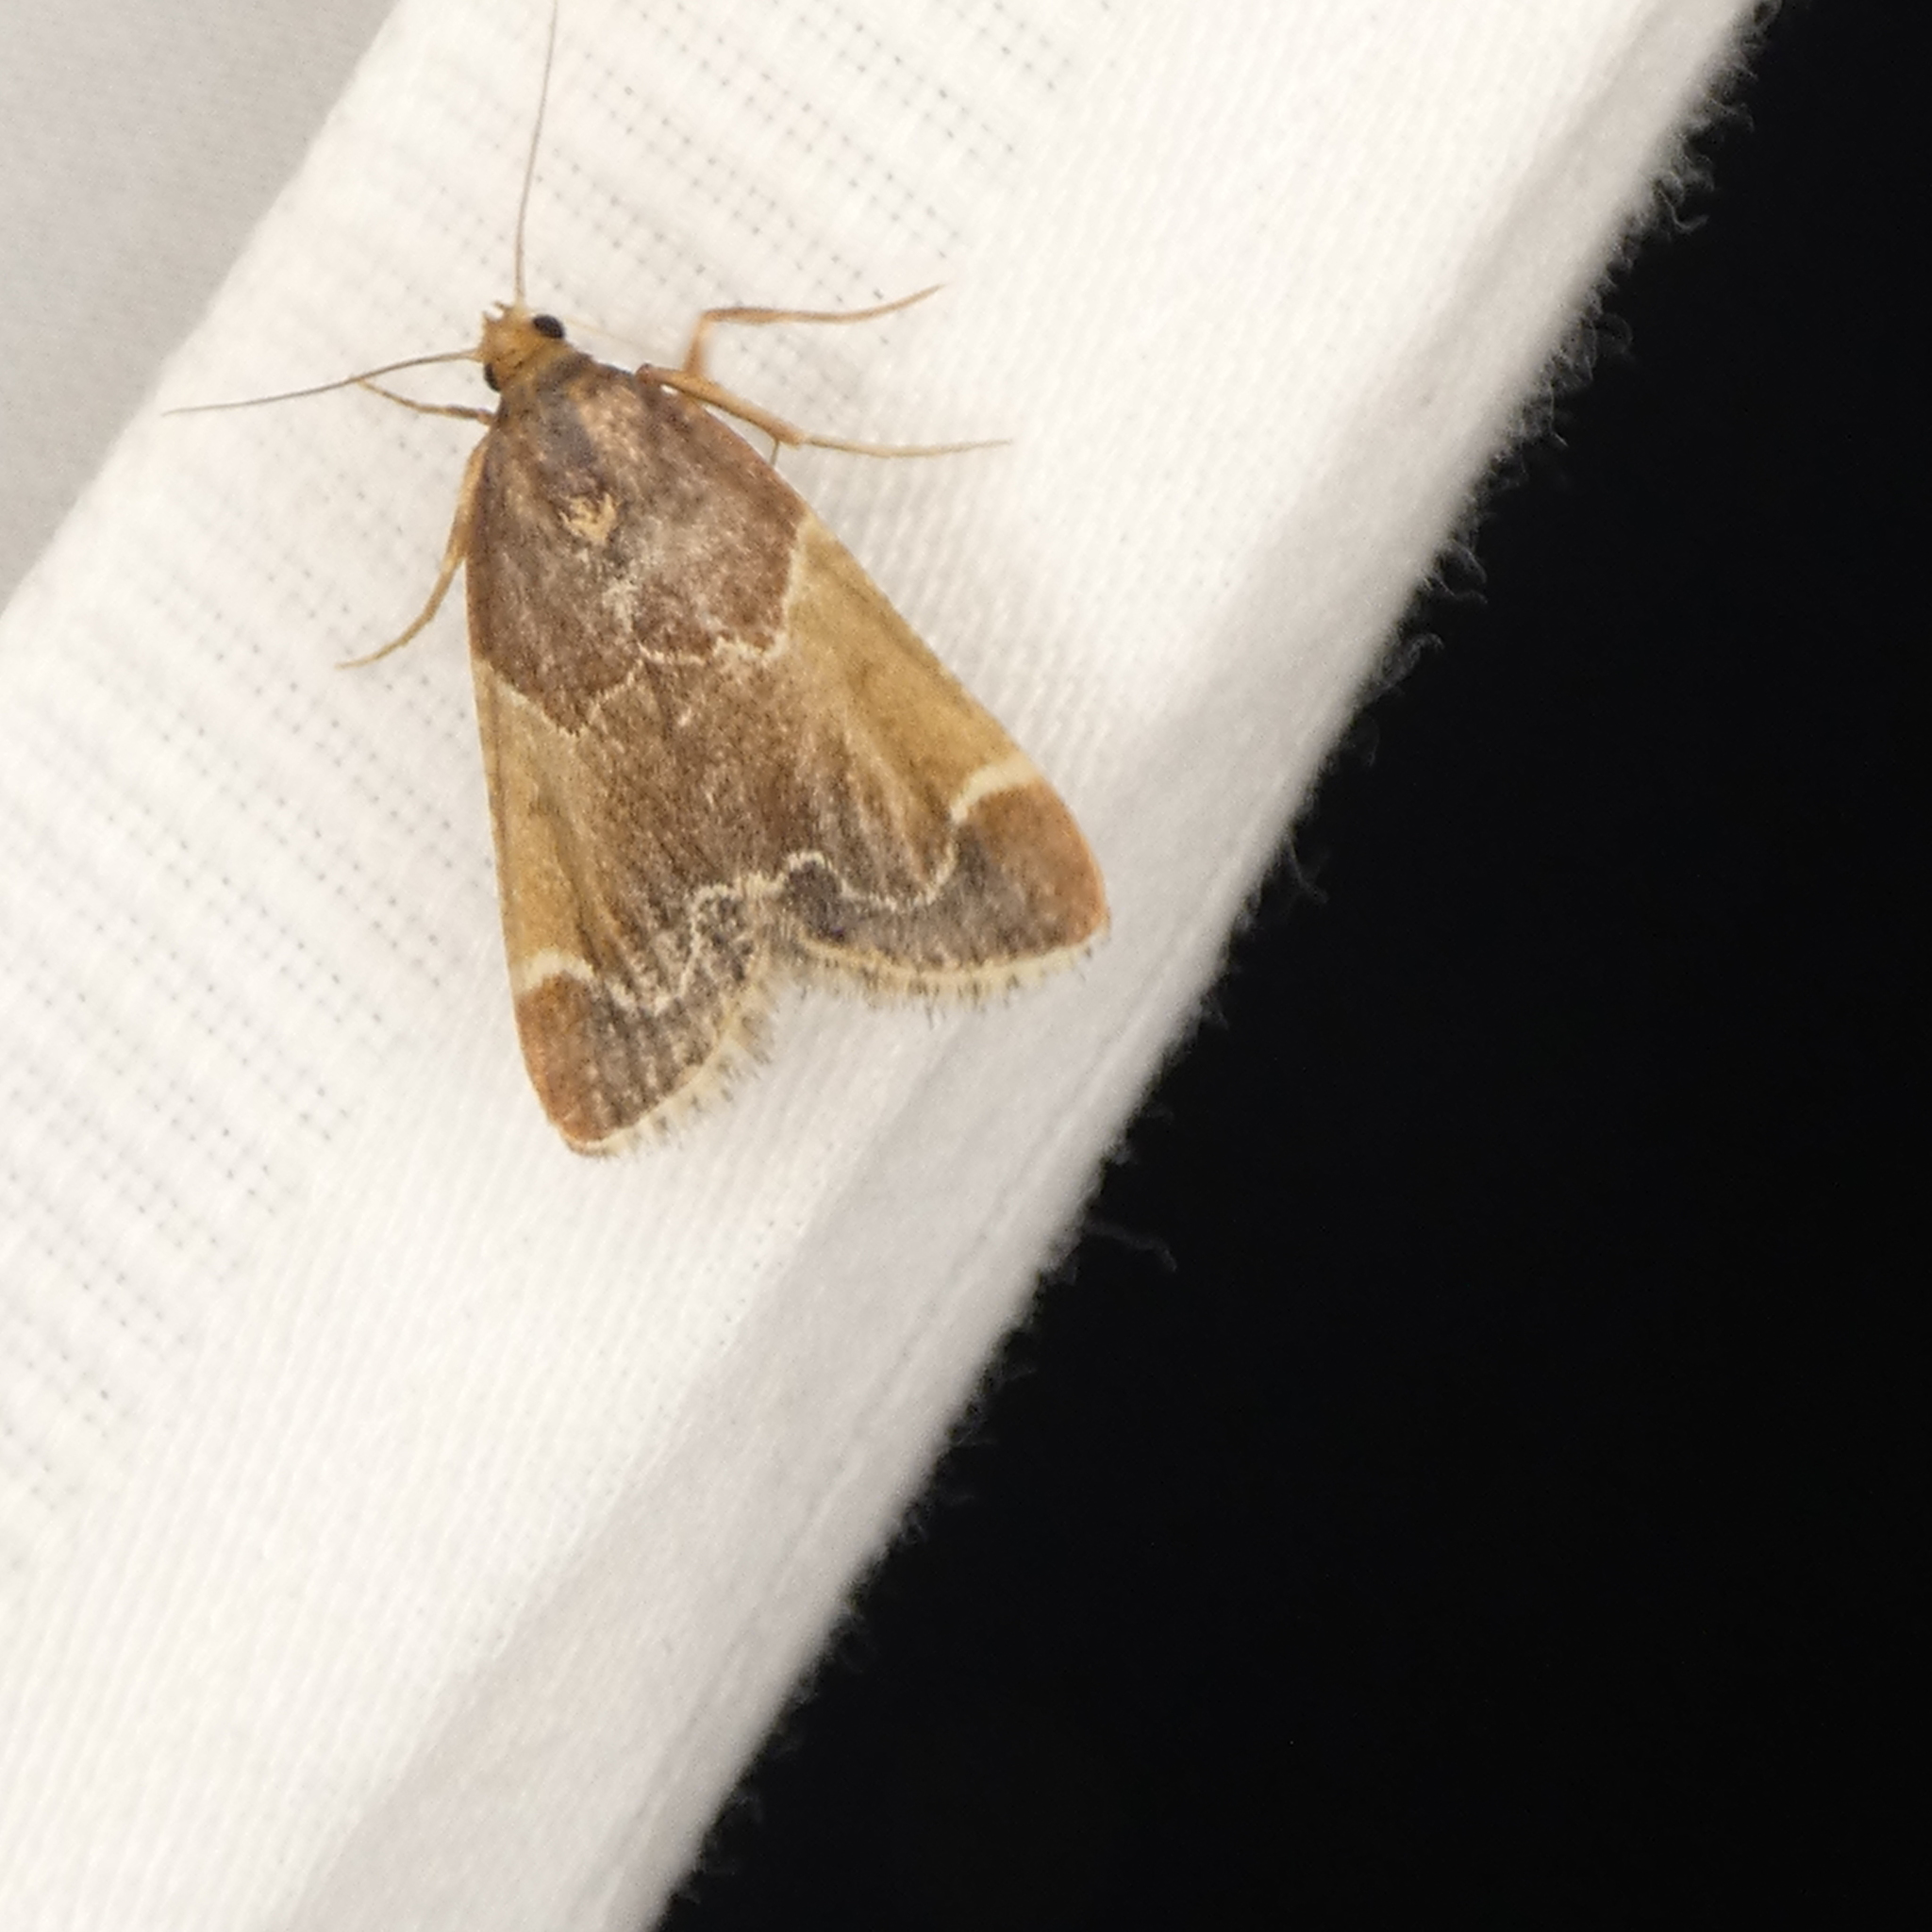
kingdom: Animalia
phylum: Arthropoda
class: Insecta
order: Lepidoptera
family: Pyralidae
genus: Pyralis
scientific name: Pyralis farinalis
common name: Meal moth
